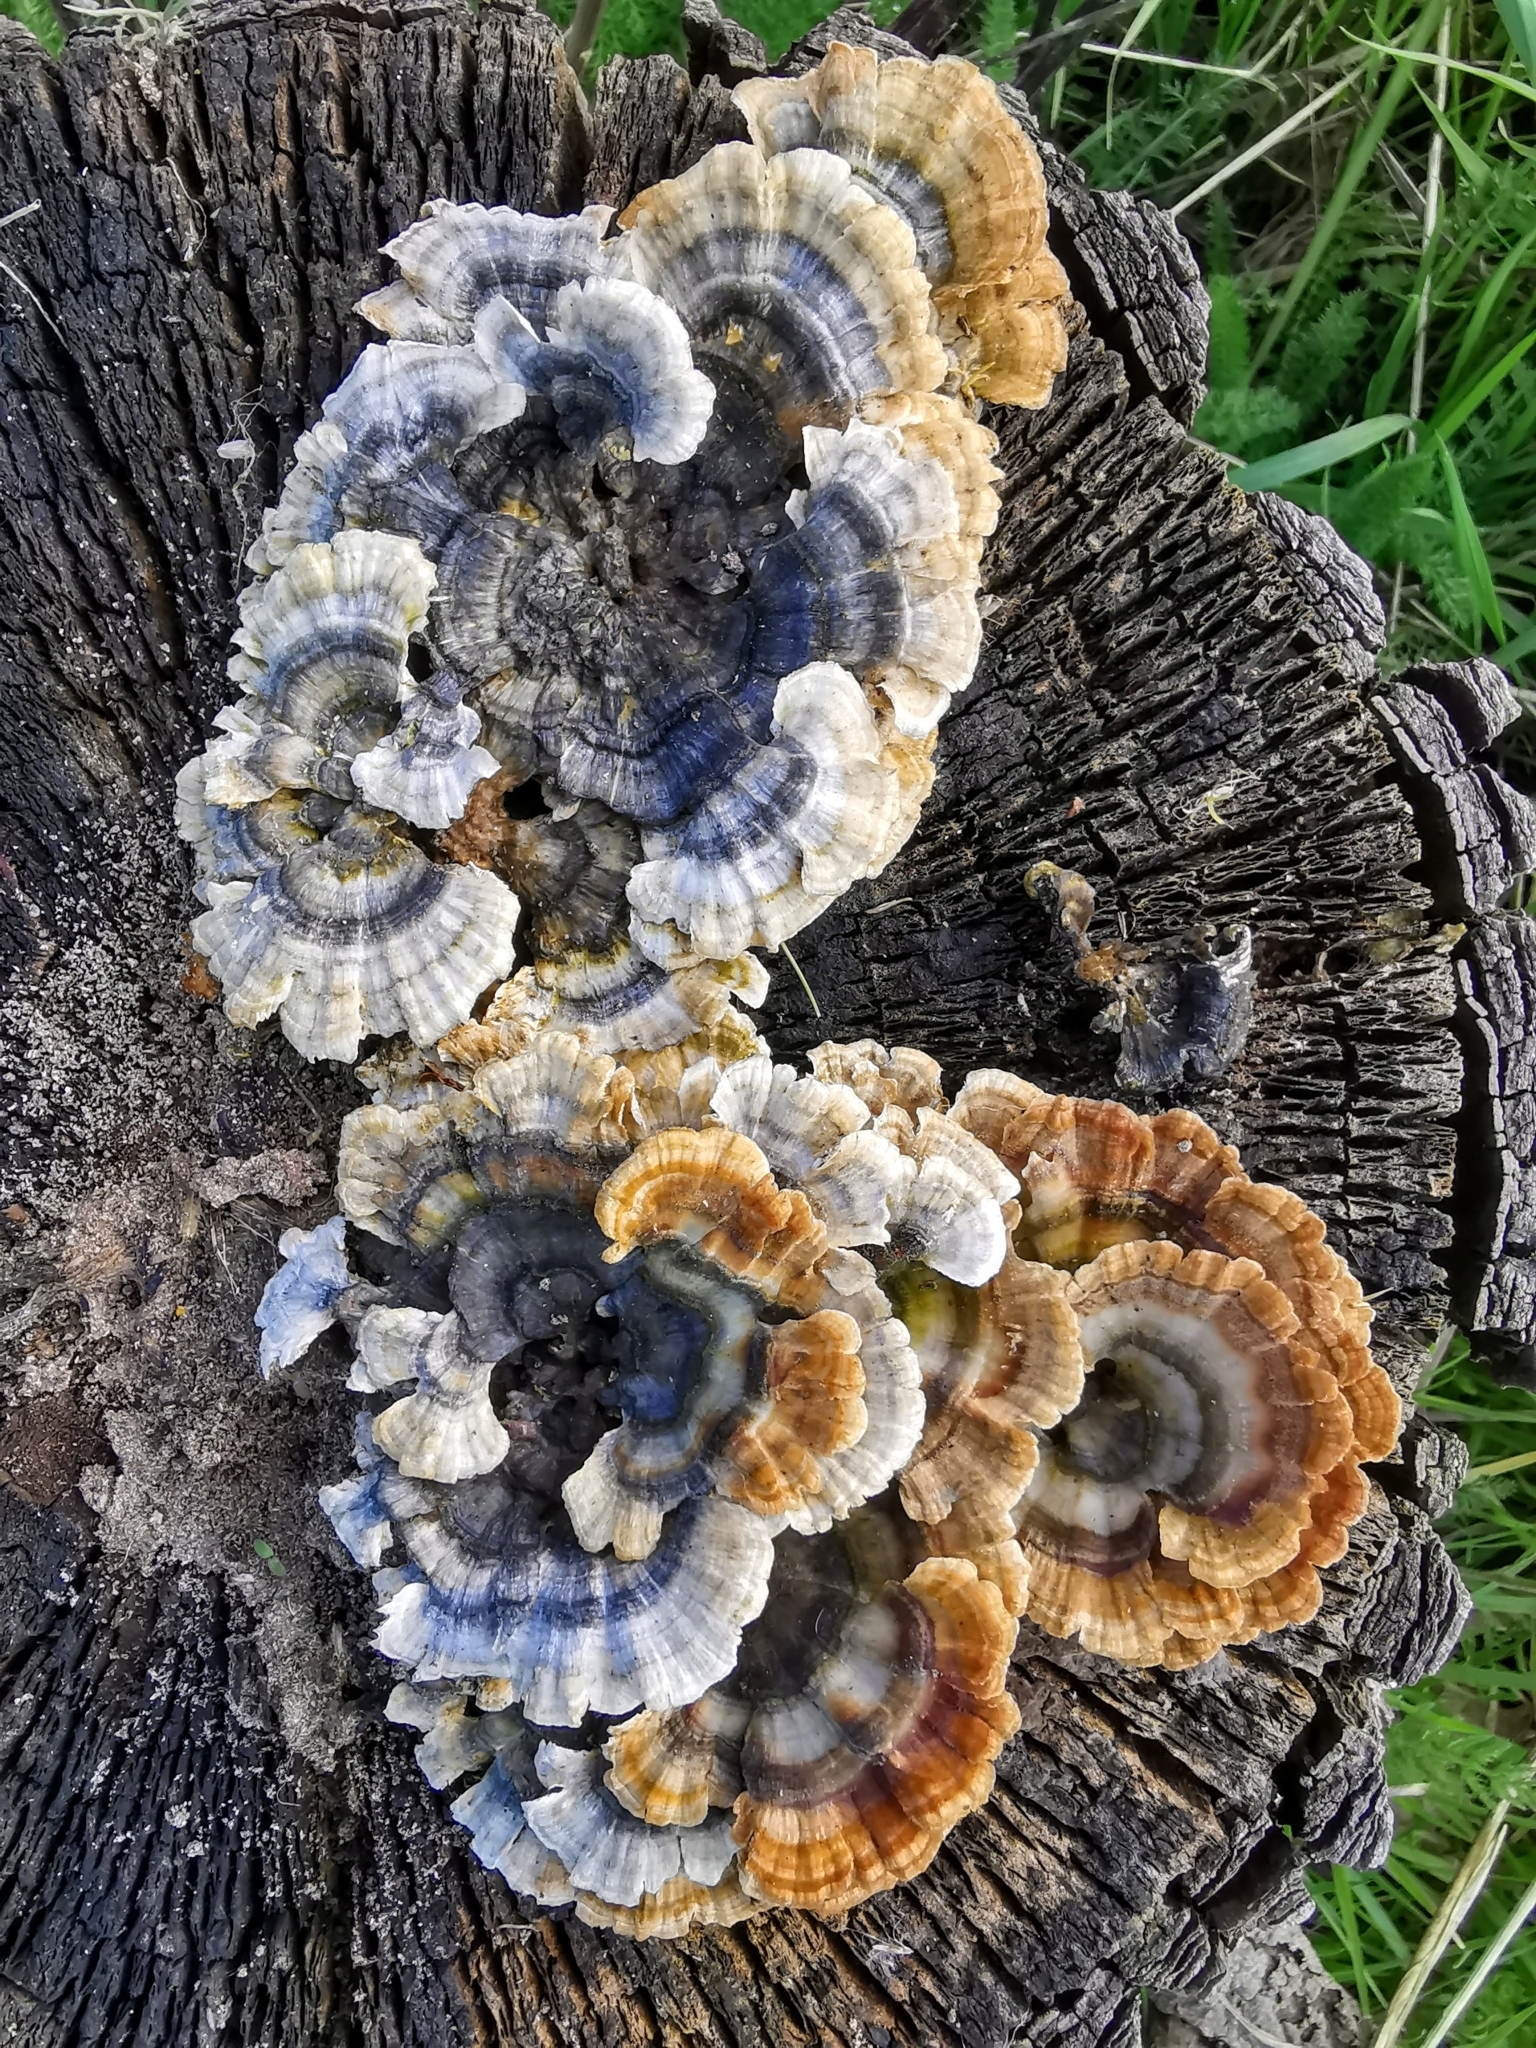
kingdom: Fungi
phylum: Basidiomycota
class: Agaricomycetes
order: Polyporales
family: Polyporaceae
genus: Trametes
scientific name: Trametes versicolor
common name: Turkeytail
